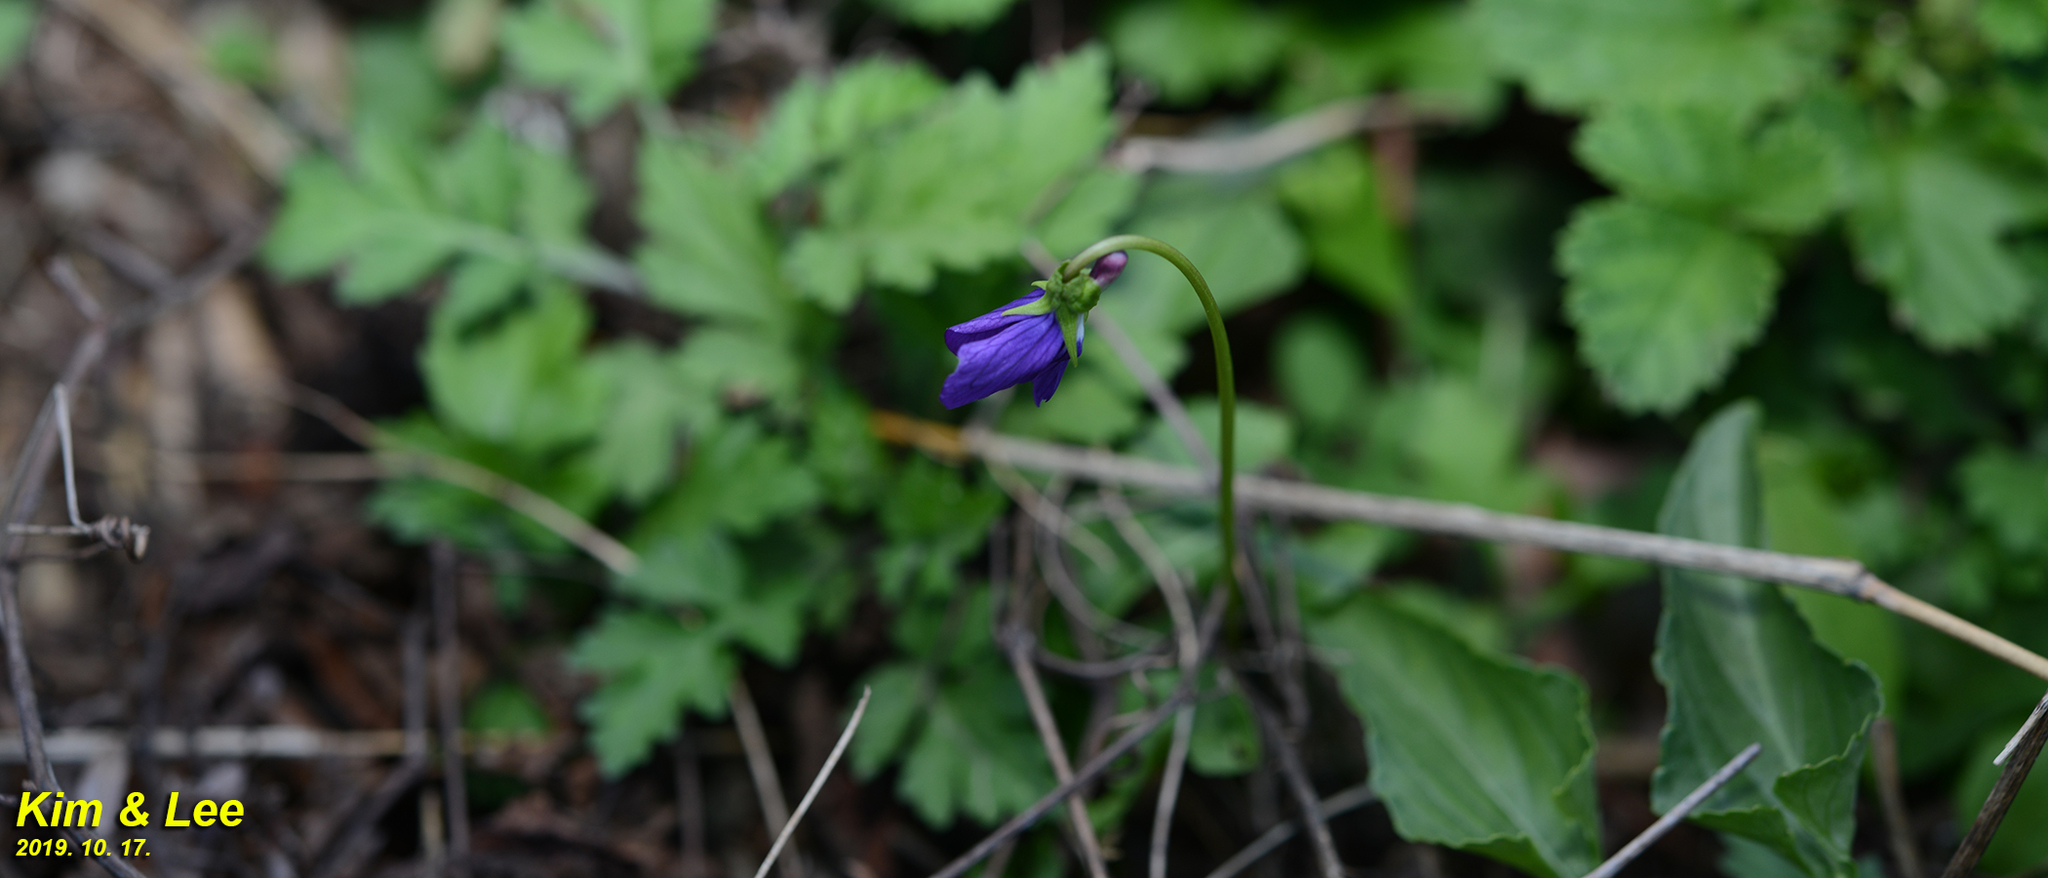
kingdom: Plantae
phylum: Tracheophyta
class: Magnoliopsida
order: Malpighiales
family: Violaceae
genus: Viola
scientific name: Viola mandshurica
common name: Manchuria violet
